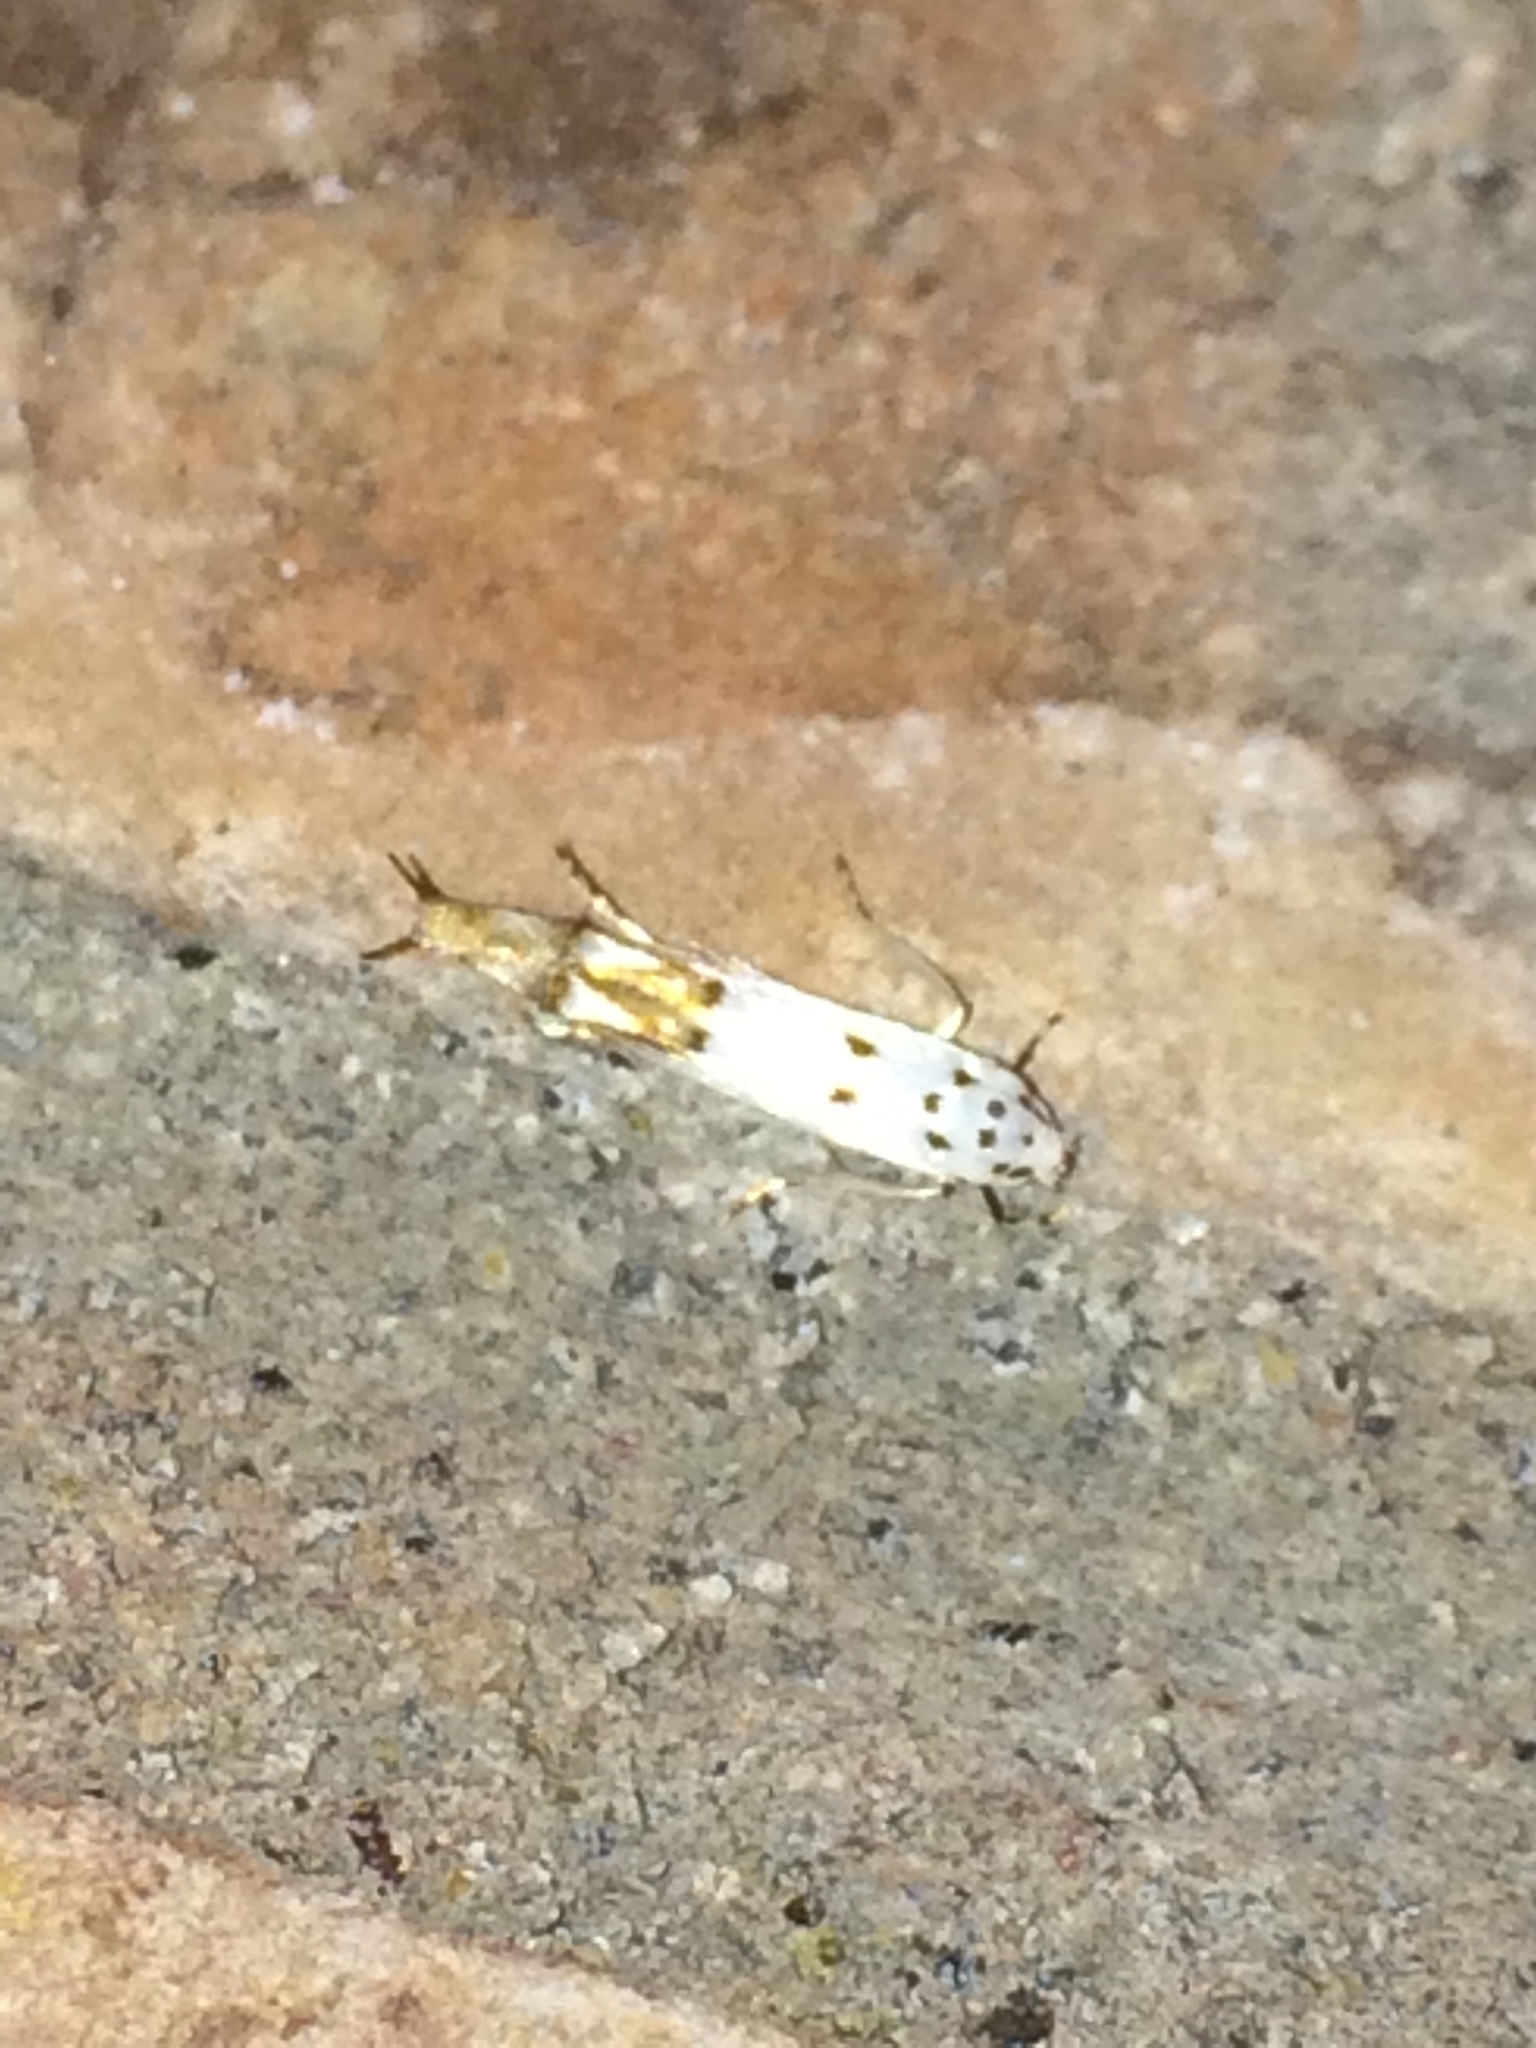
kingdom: Animalia
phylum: Arthropoda
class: Insecta
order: Lepidoptera
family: Momphidae
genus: Mompha
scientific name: Mompha eloisella
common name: Red-streaked mompha moth
